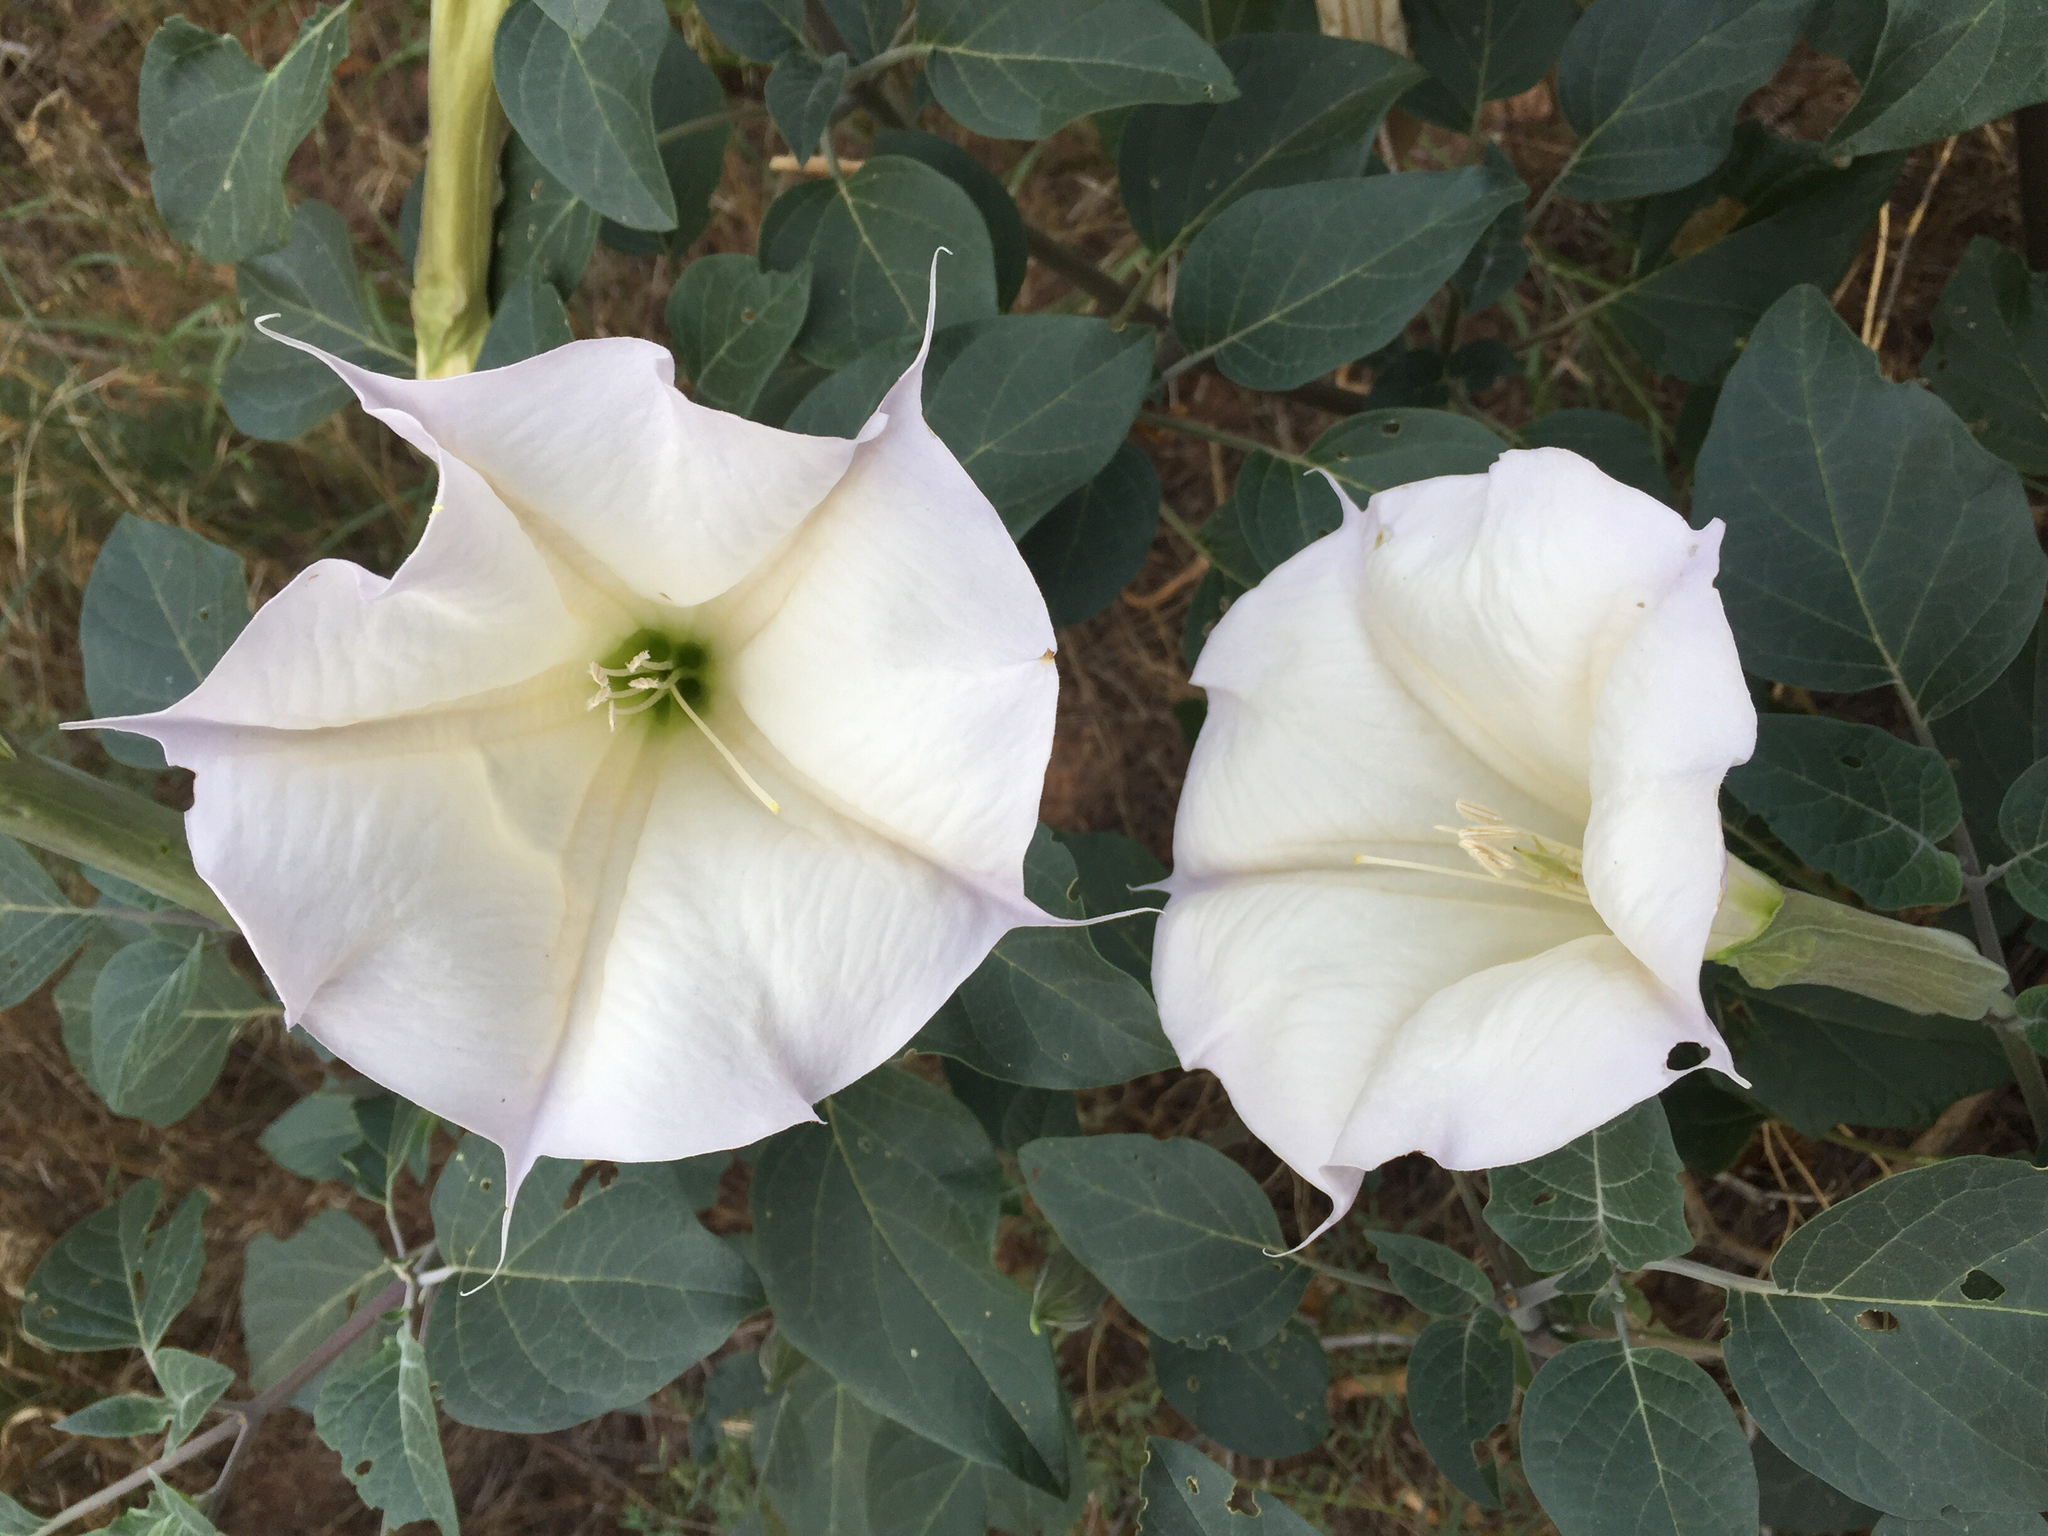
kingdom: Plantae
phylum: Tracheophyta
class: Magnoliopsida
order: Solanales
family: Solanaceae
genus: Datura
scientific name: Datura wrightii
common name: Sacred thorn-apple
